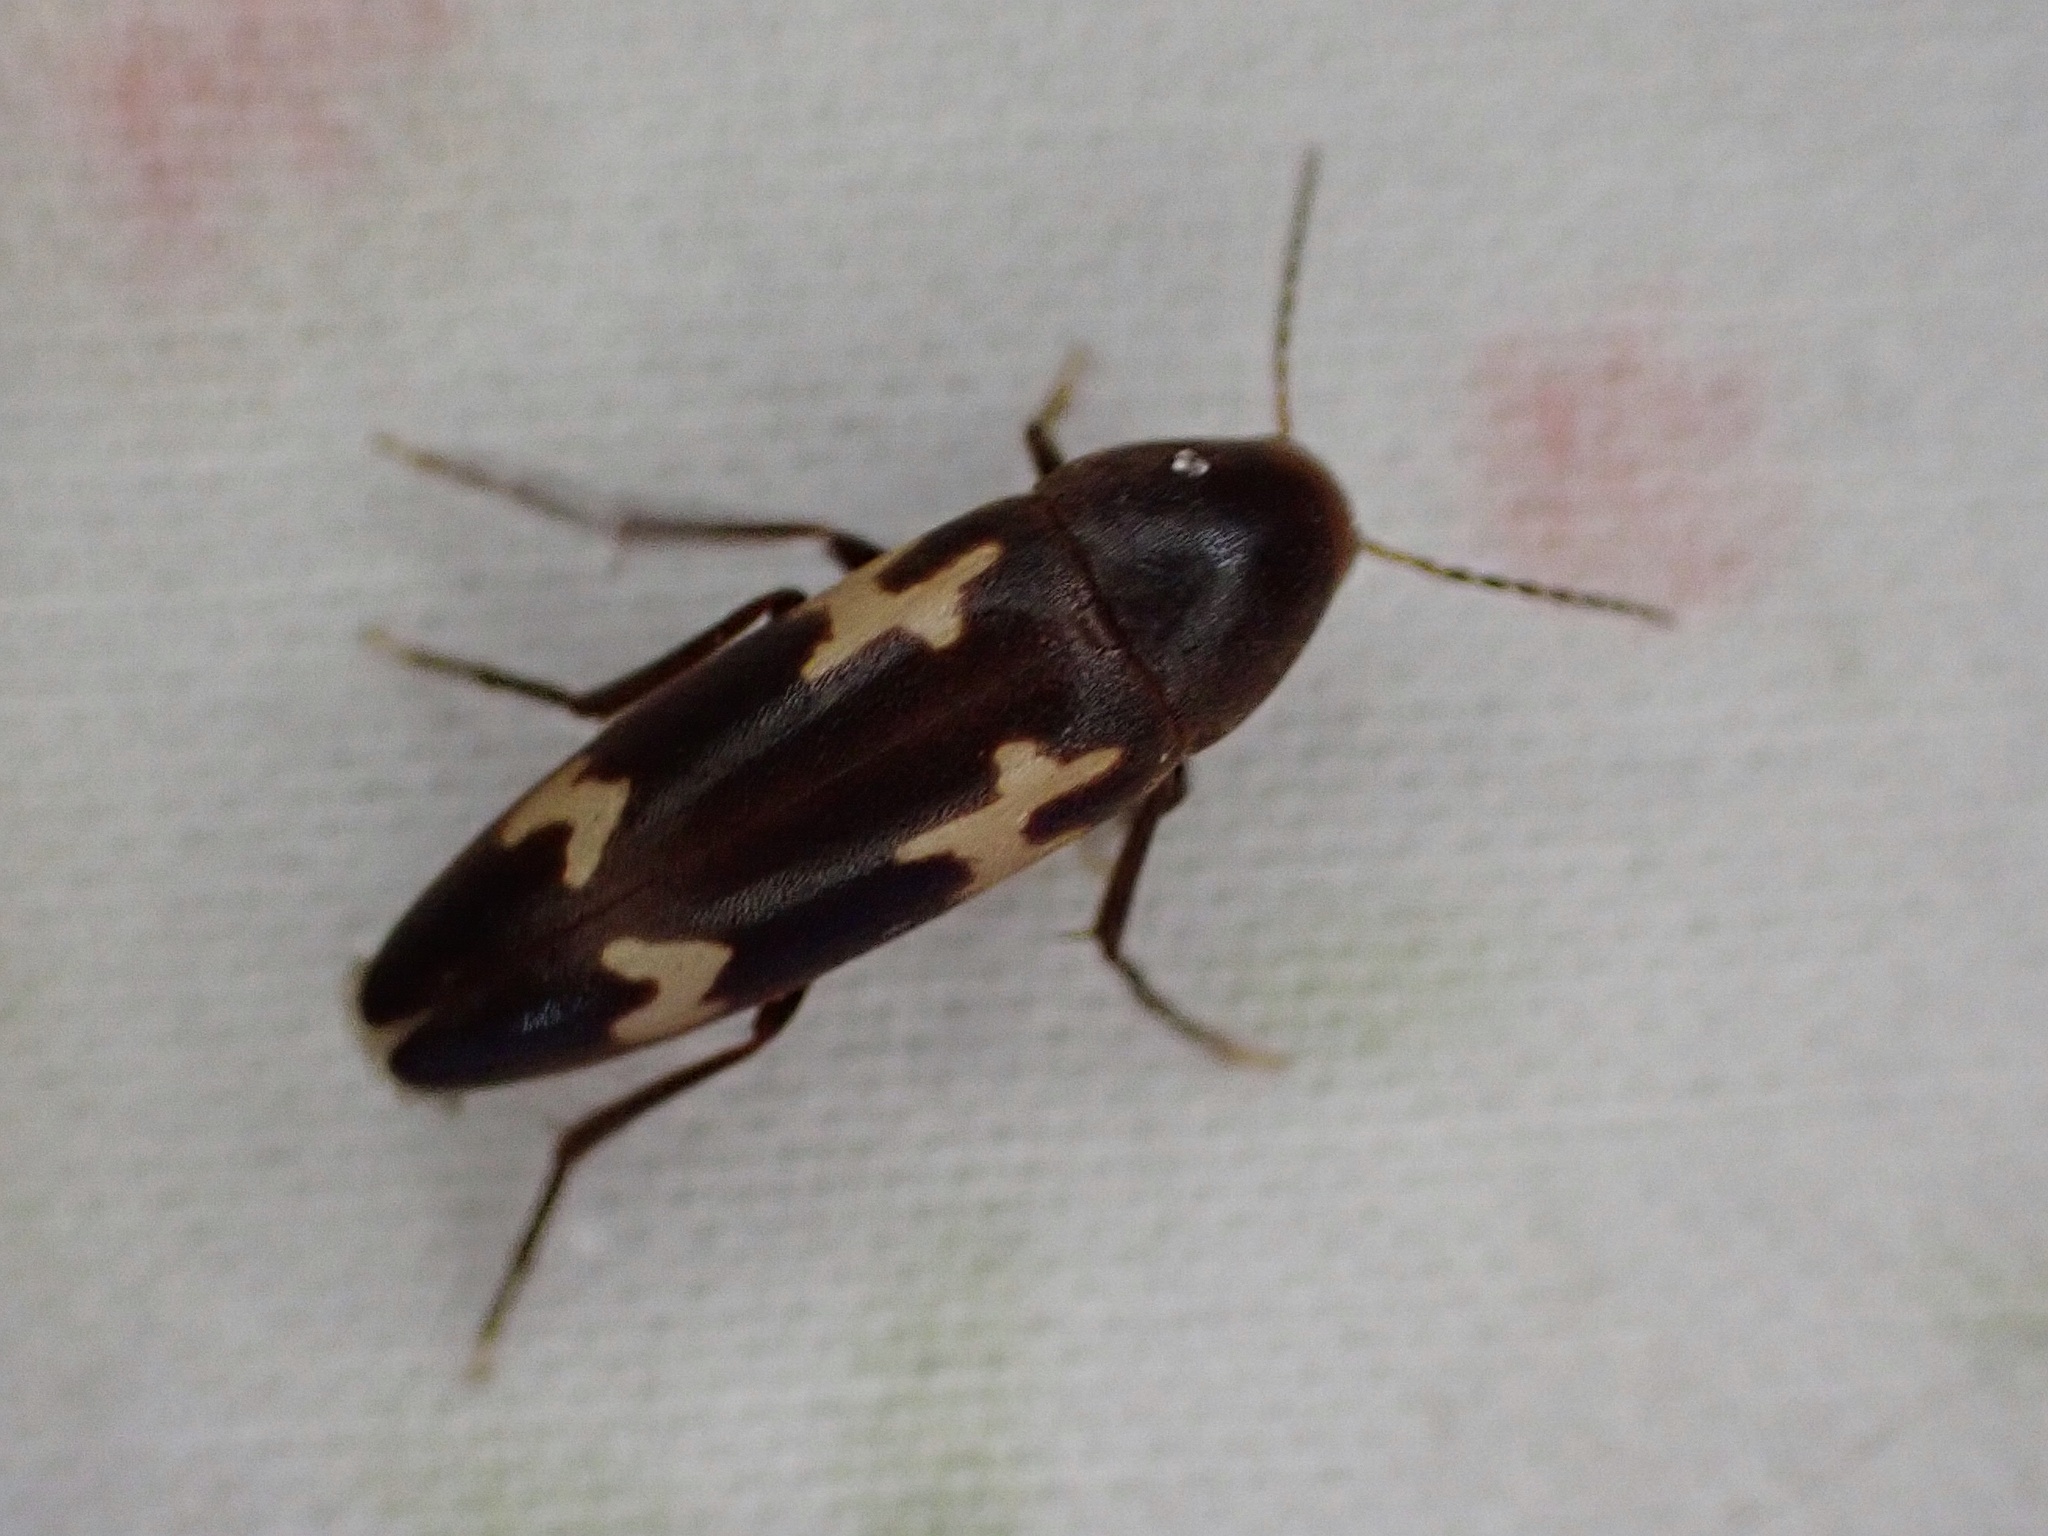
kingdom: Animalia
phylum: Arthropoda
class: Insecta
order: Coleoptera
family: Melandryidae
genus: Dircaea
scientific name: Dircaea liturata
